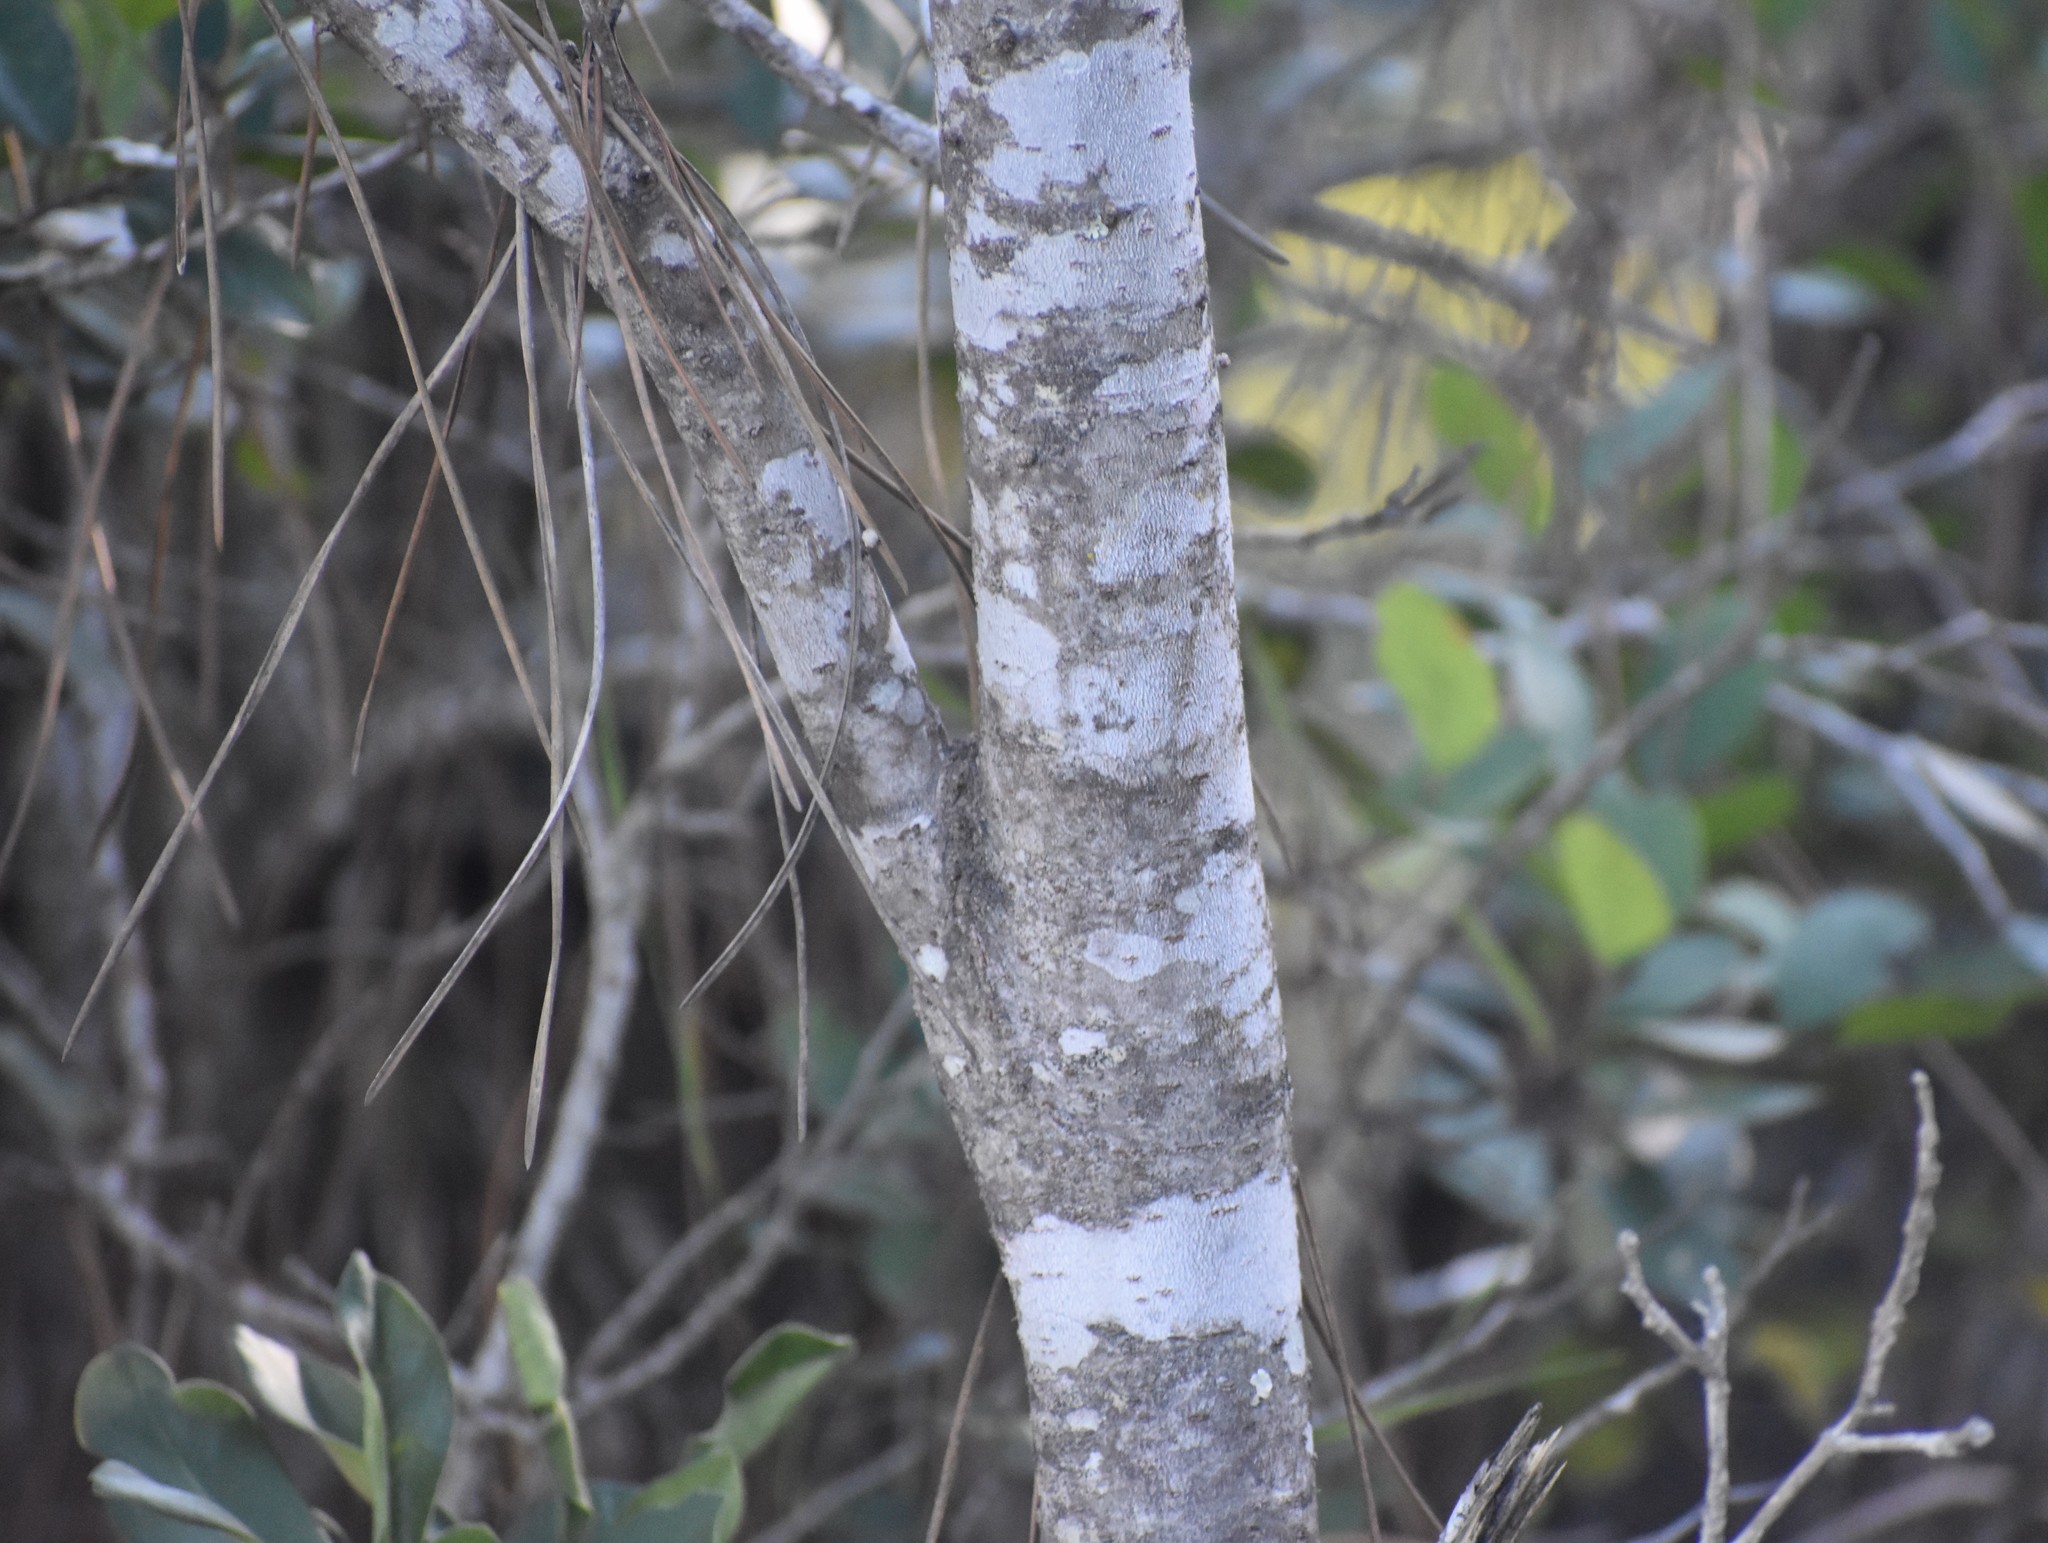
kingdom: Plantae
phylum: Tracheophyta
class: Magnoliopsida
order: Apiales
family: Pittosporaceae
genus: Pittosporum
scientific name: Pittosporum viridiflorum
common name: Cape cheesewood
